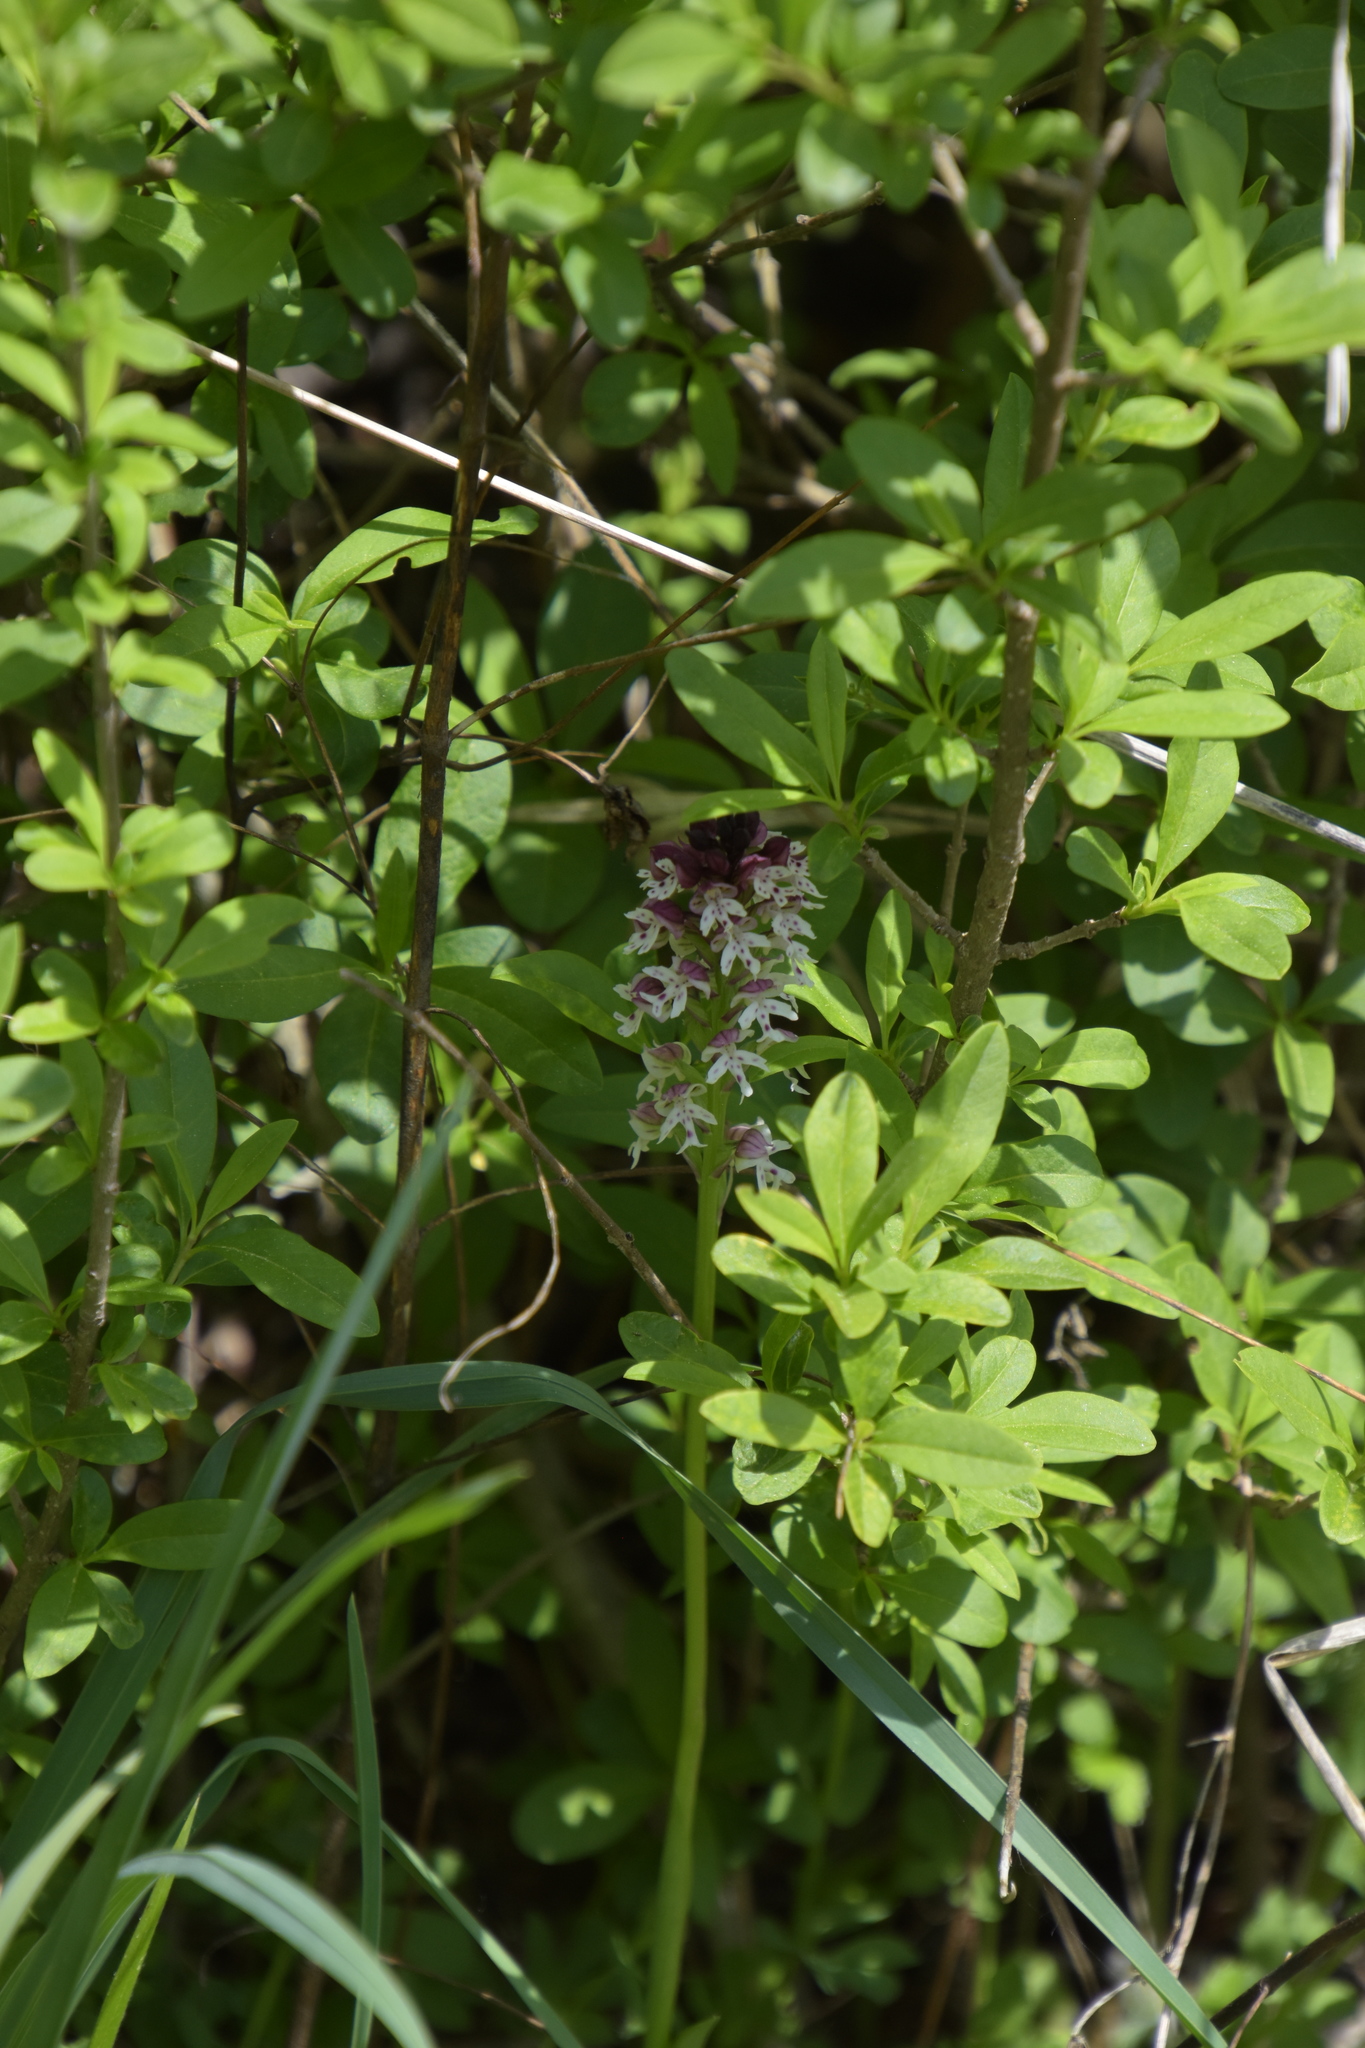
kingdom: Plantae
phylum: Tracheophyta
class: Liliopsida
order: Asparagales
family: Orchidaceae
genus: Neotinea
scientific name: Neotinea ustulata
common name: Burnt orchid
